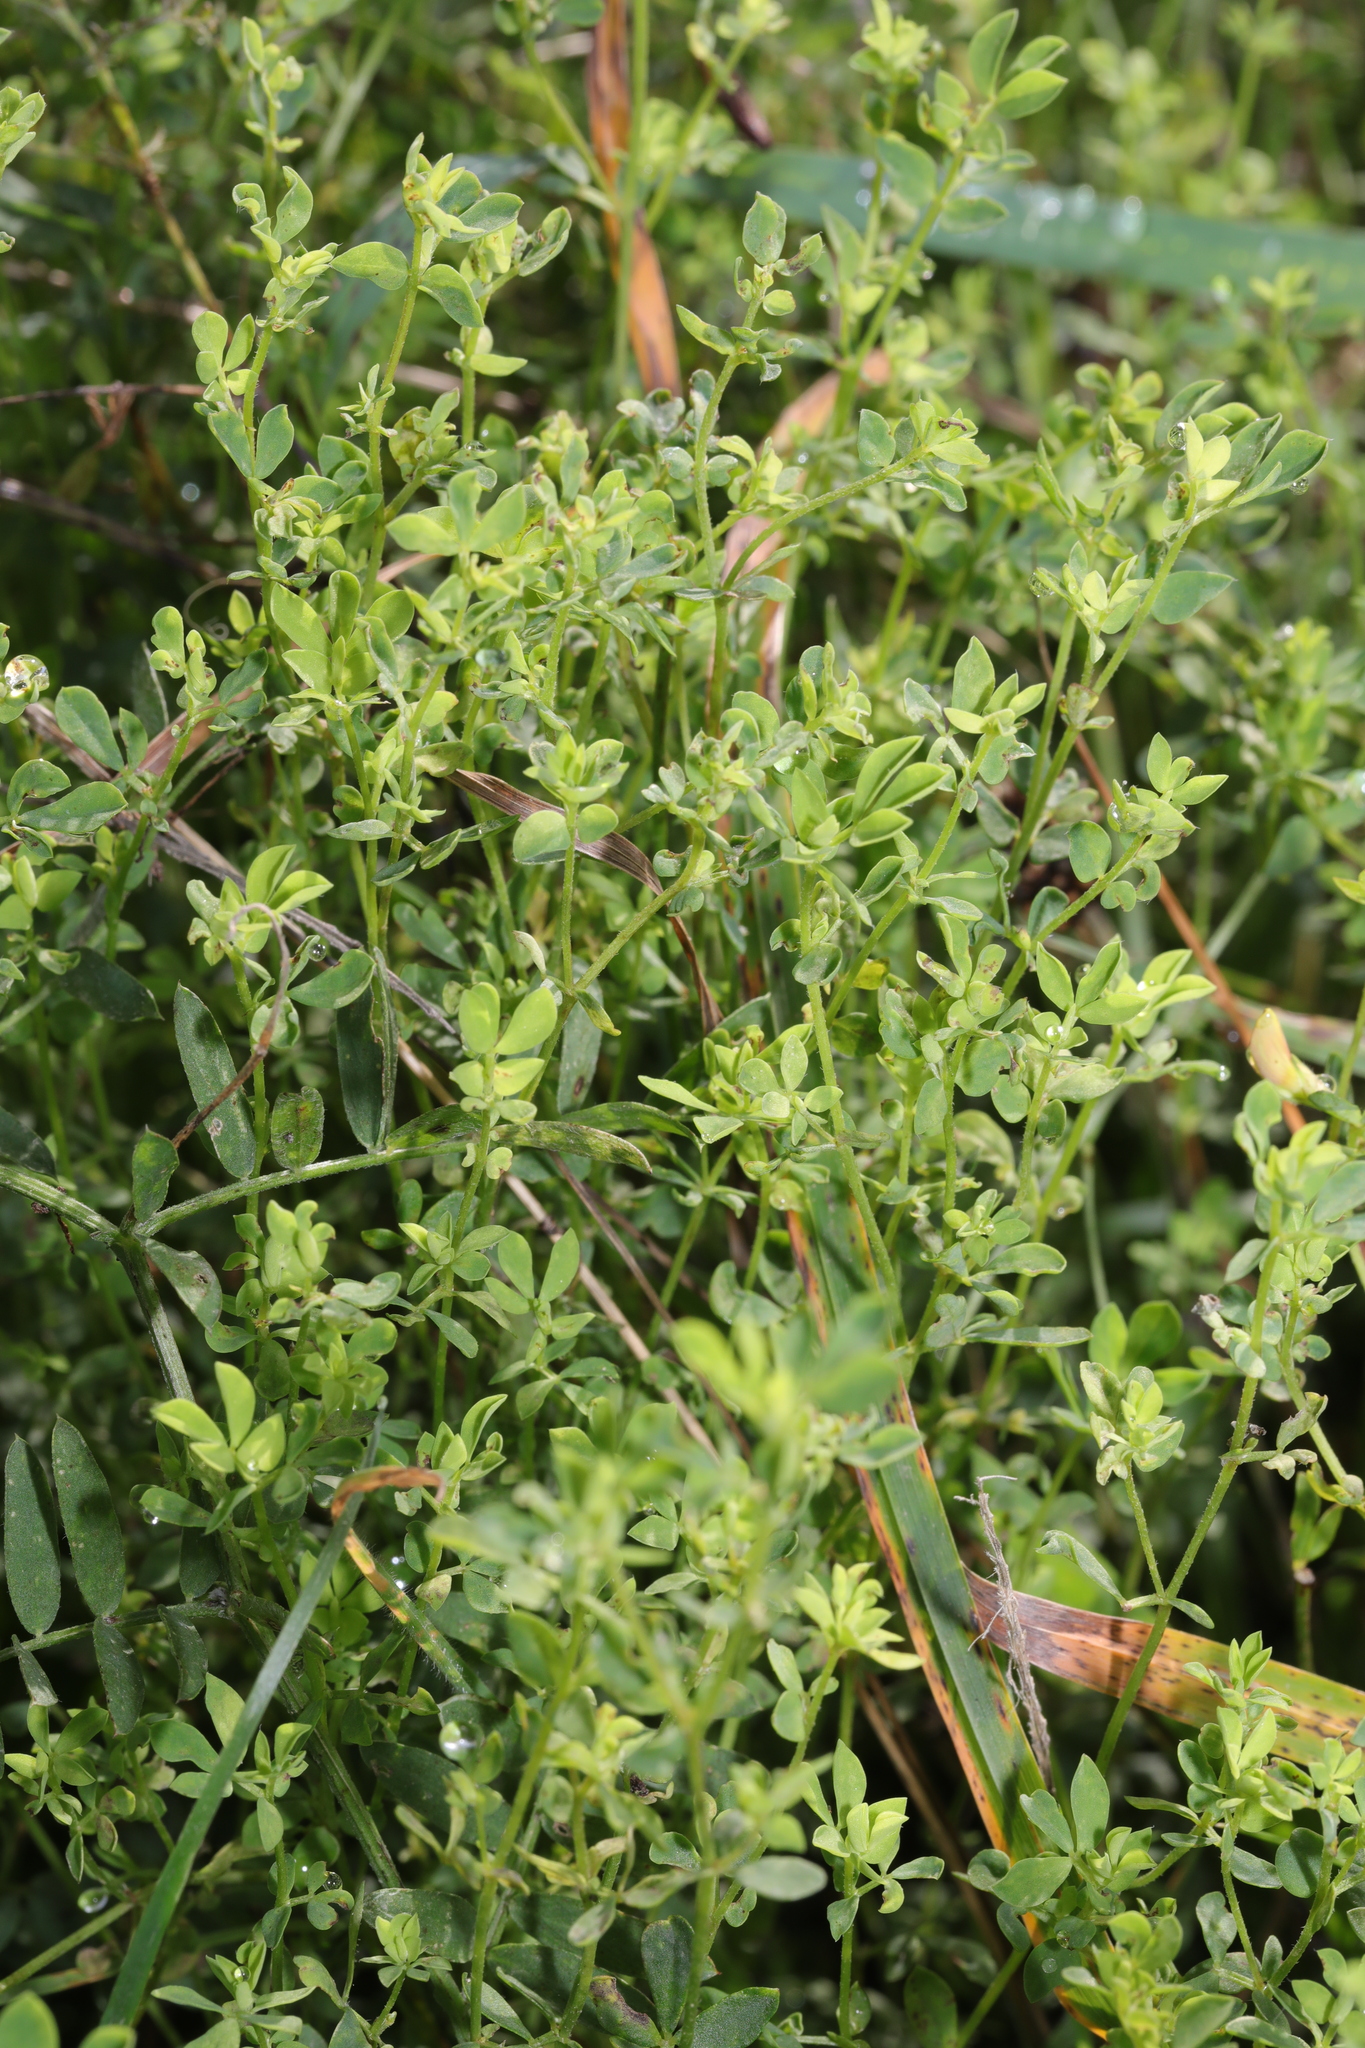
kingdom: Plantae
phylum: Tracheophyta
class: Magnoliopsida
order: Fabales
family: Fabaceae
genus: Lotus
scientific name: Lotus corniculatus
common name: Common bird's-foot-trefoil
